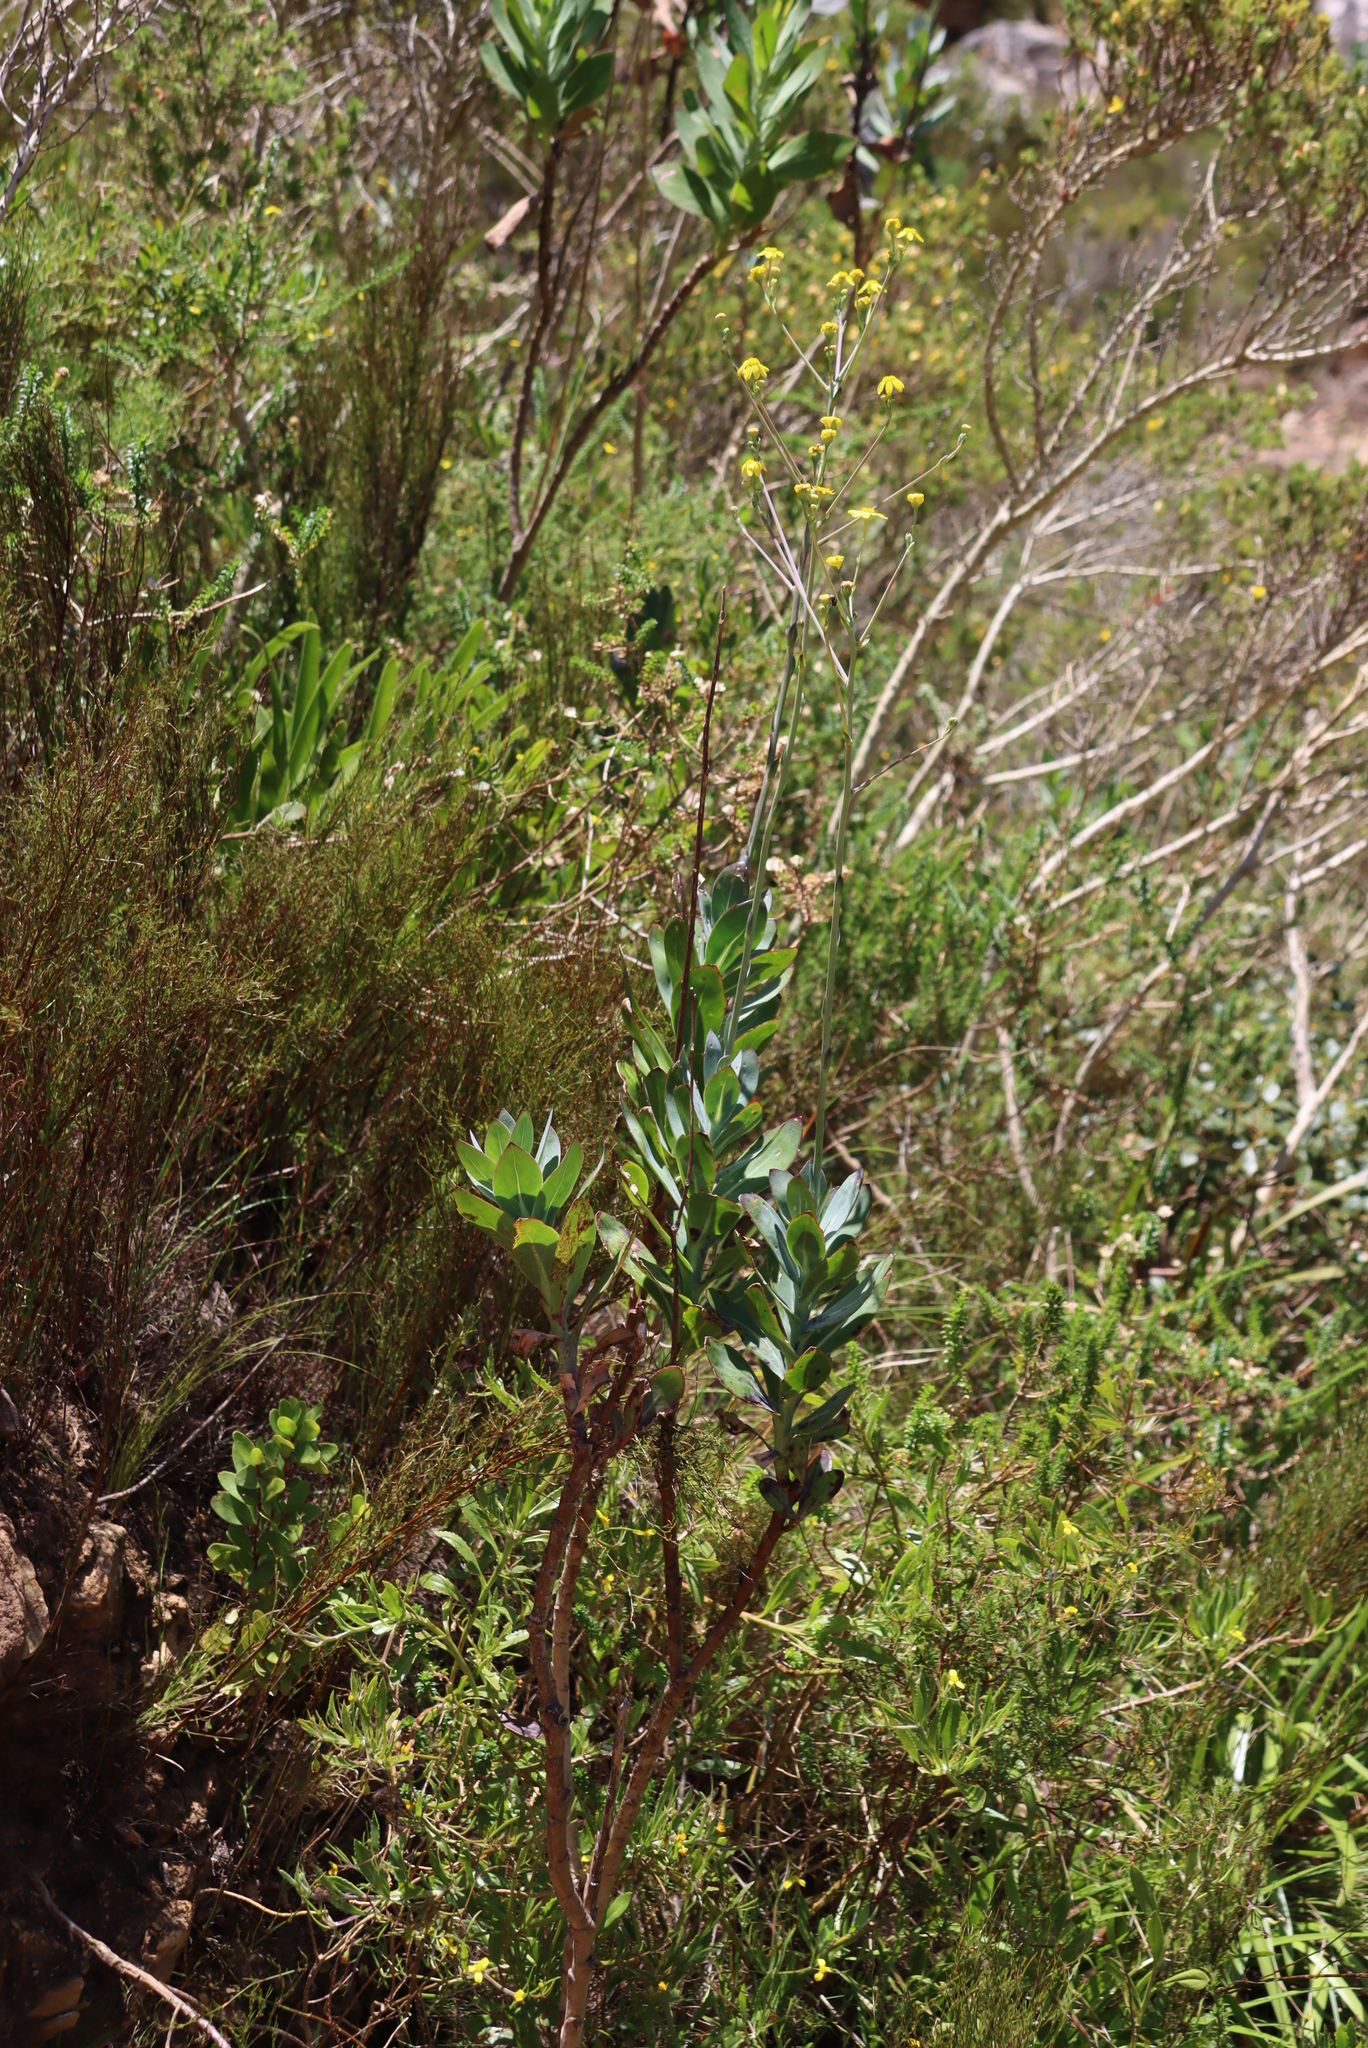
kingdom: Plantae
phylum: Tracheophyta
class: Magnoliopsida
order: Asterales
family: Asteraceae
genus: Othonna
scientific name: Othonna quinquedentata
